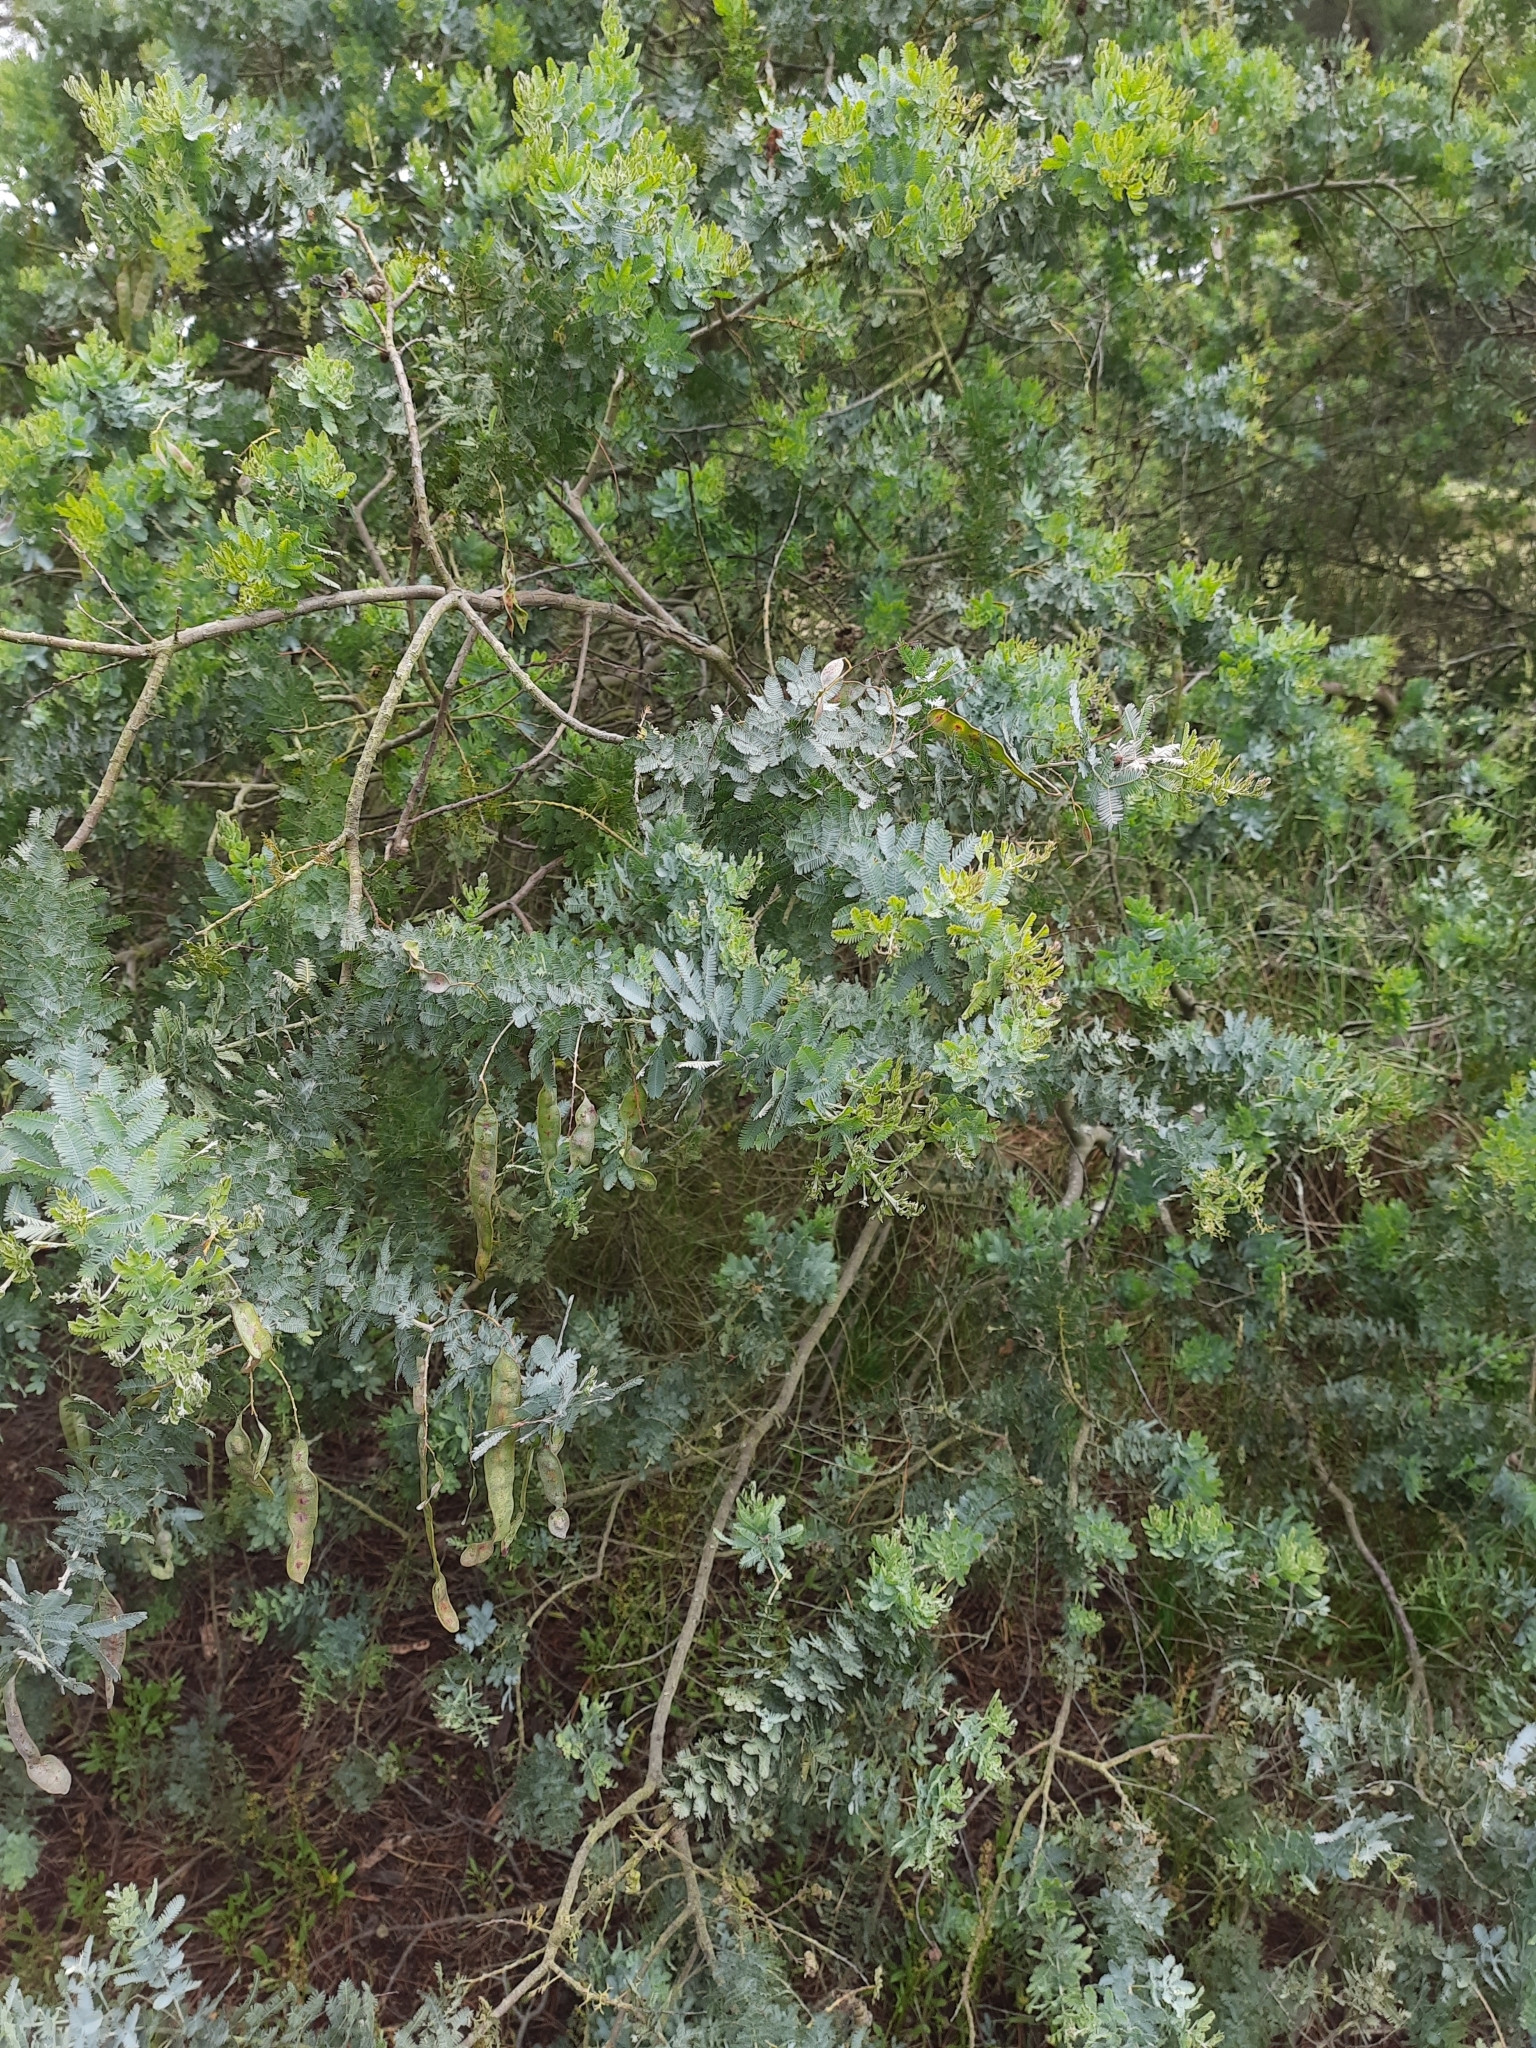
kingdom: Plantae
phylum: Tracheophyta
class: Magnoliopsida
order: Fabales
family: Fabaceae
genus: Acacia
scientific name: Acacia baileyana
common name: Cootamundra wattle
